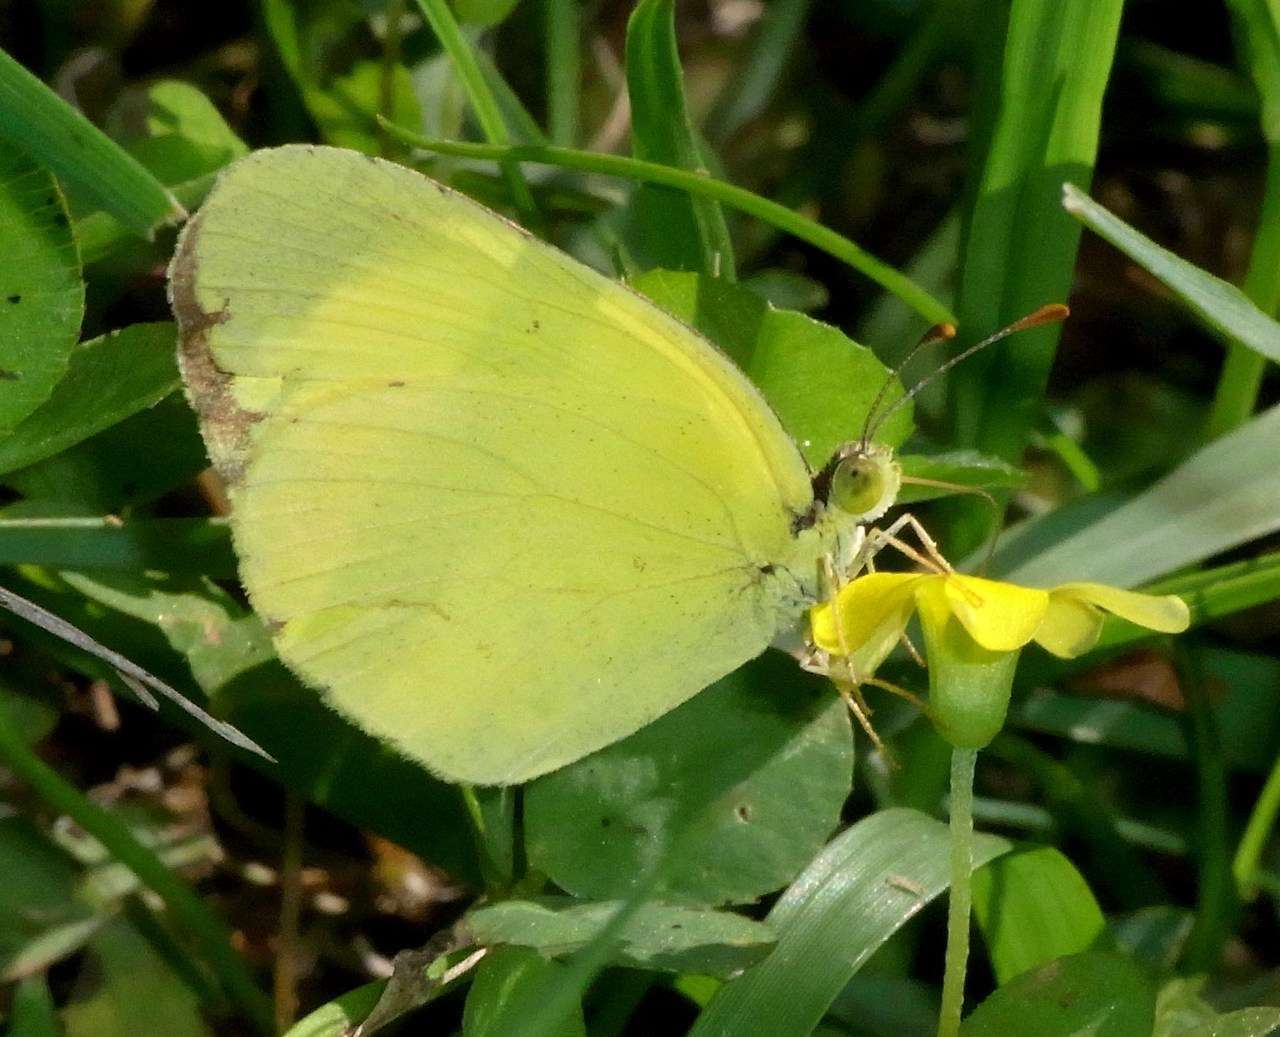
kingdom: Animalia
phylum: Arthropoda
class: Insecta
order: Lepidoptera
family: Pieridae
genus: Eurema
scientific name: Eurema smilax
